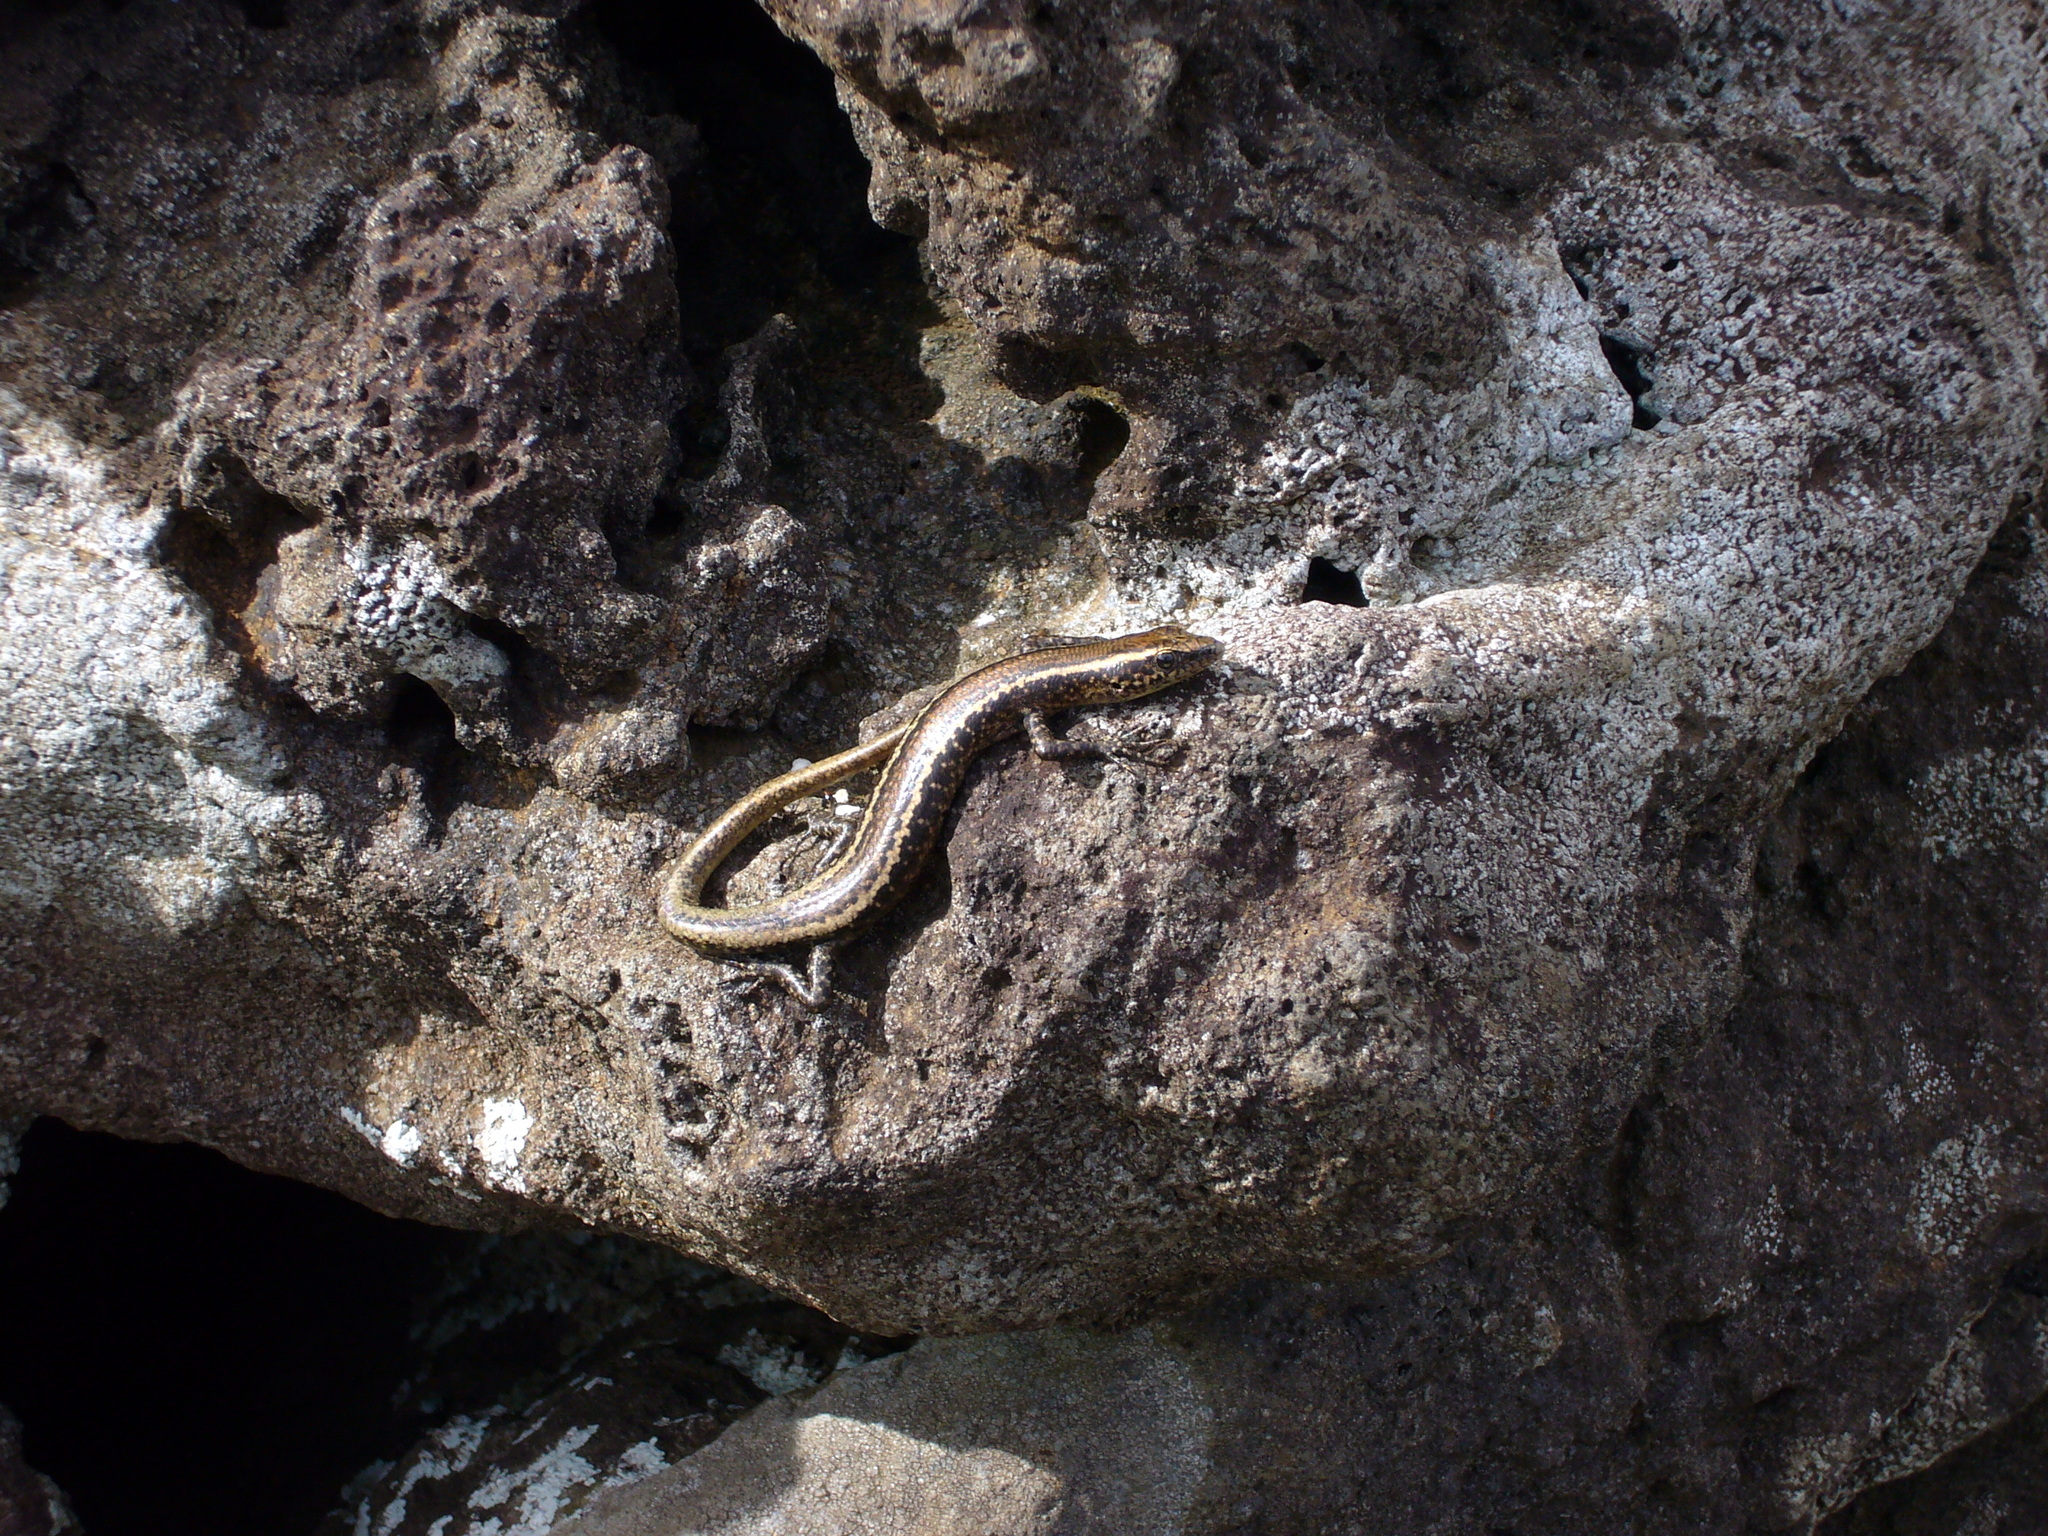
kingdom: Animalia
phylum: Chordata
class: Squamata
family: Scincidae
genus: Cryptoblepharus
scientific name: Cryptoblepharus poecilopleurus
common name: Mottled snake-eyed skink
